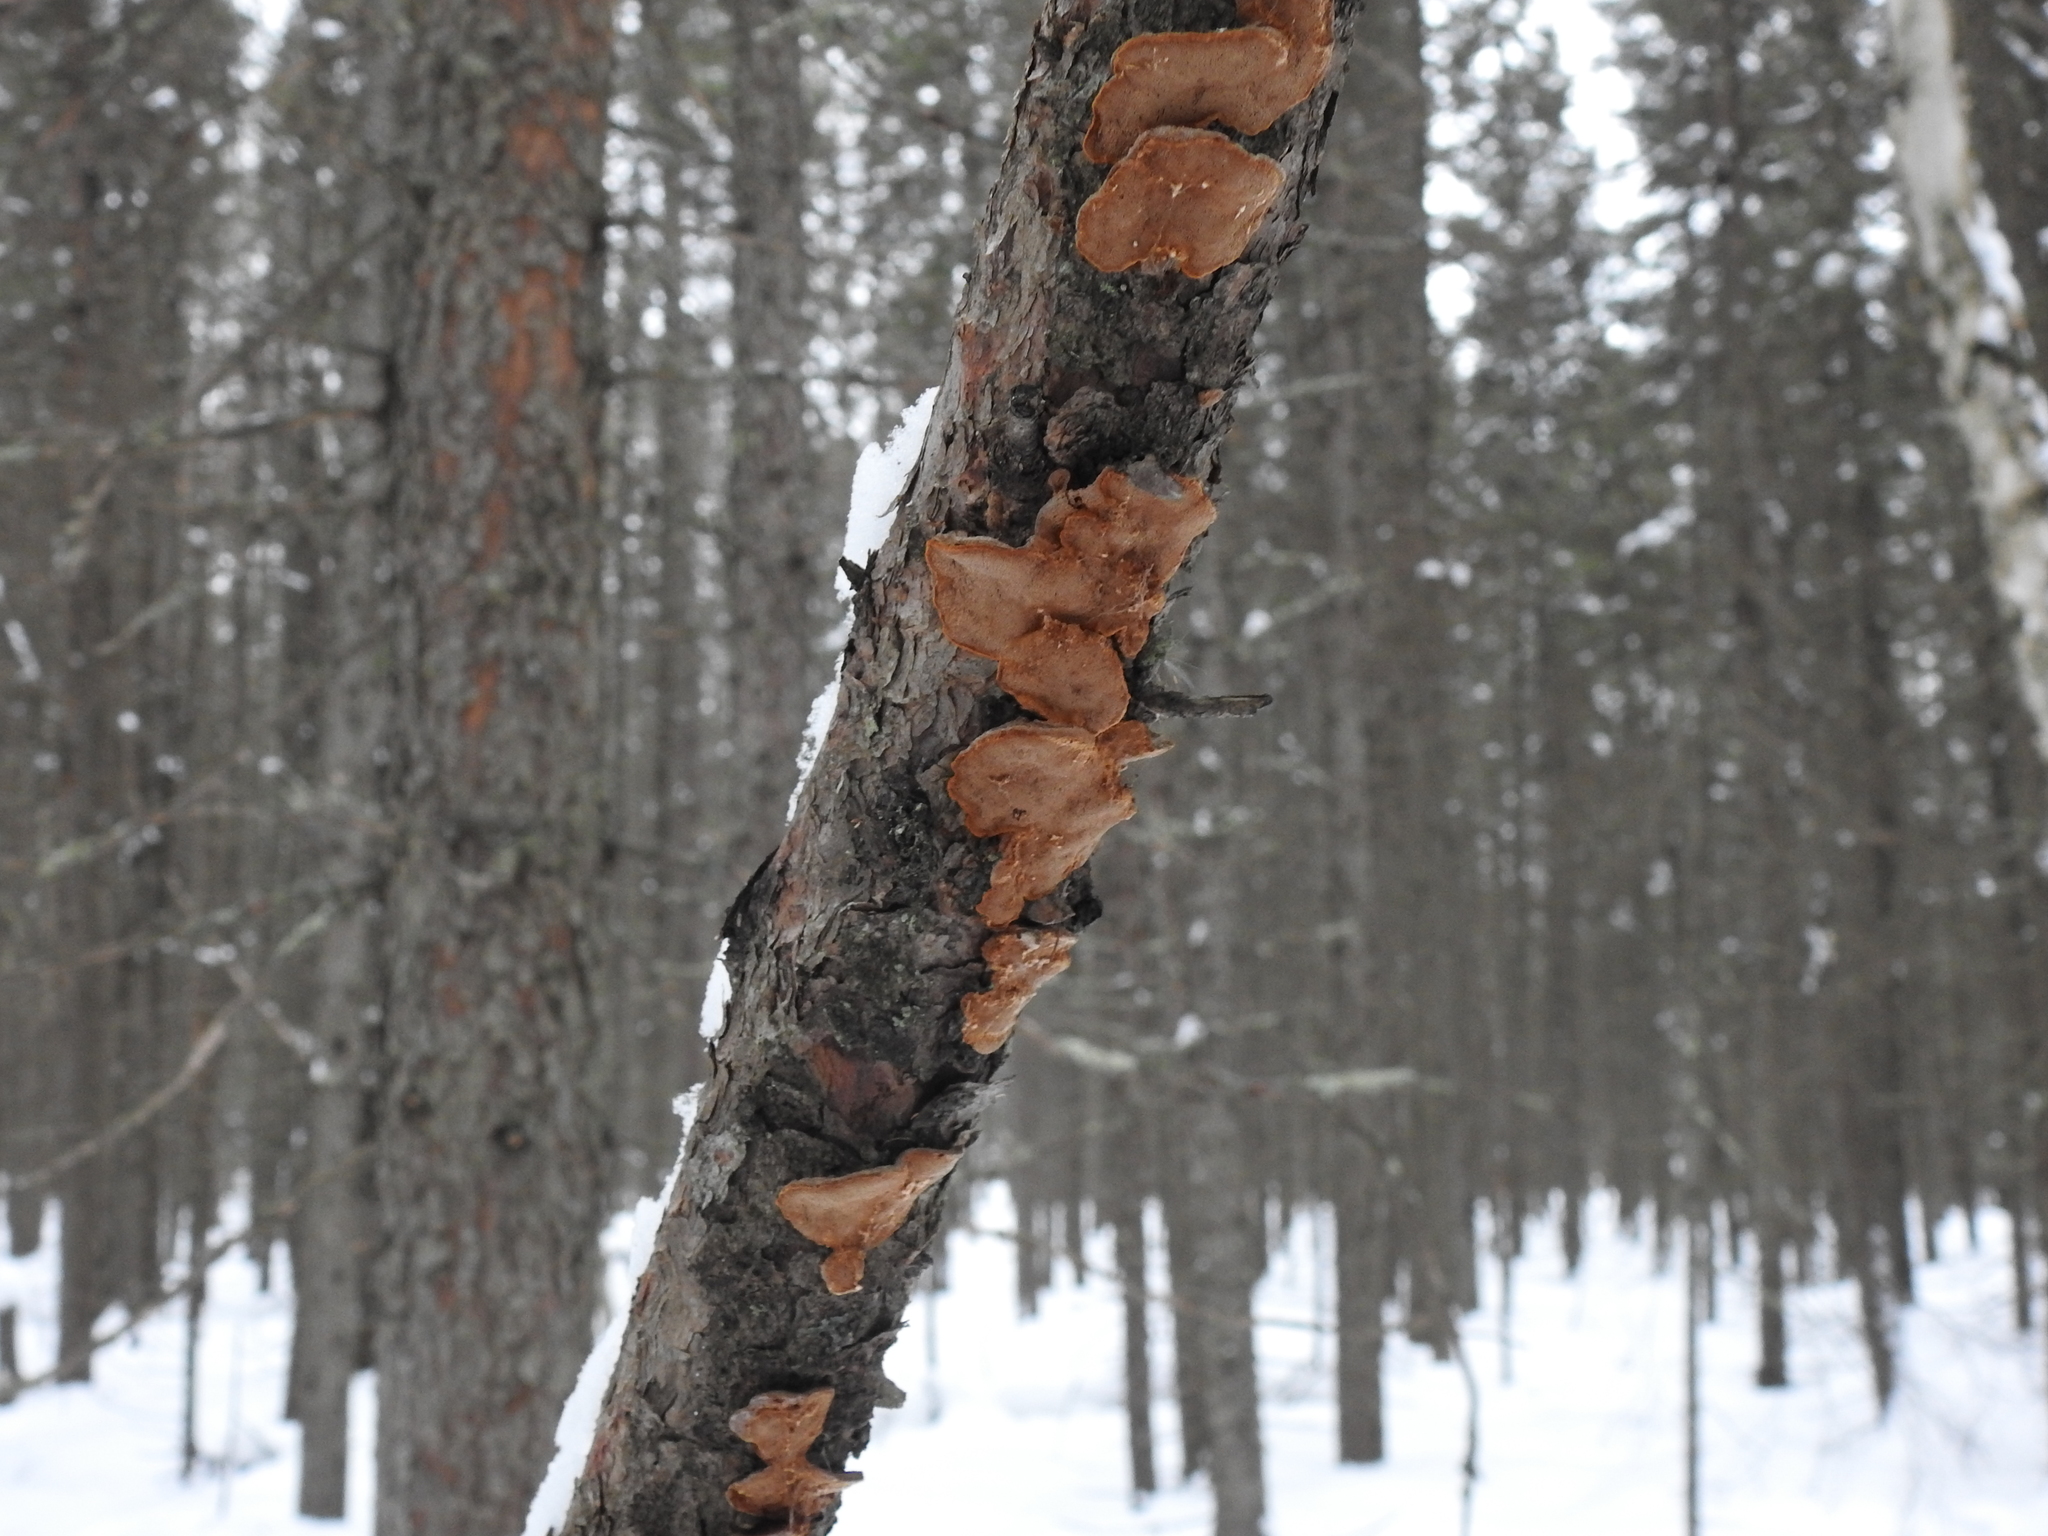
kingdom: Fungi
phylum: Basidiomycota
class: Agaricomycetes
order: Polyporales
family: Phanerochaetaceae
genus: Hapalopilus
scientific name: Hapalopilus rutilans
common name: Tender nesting polypore
